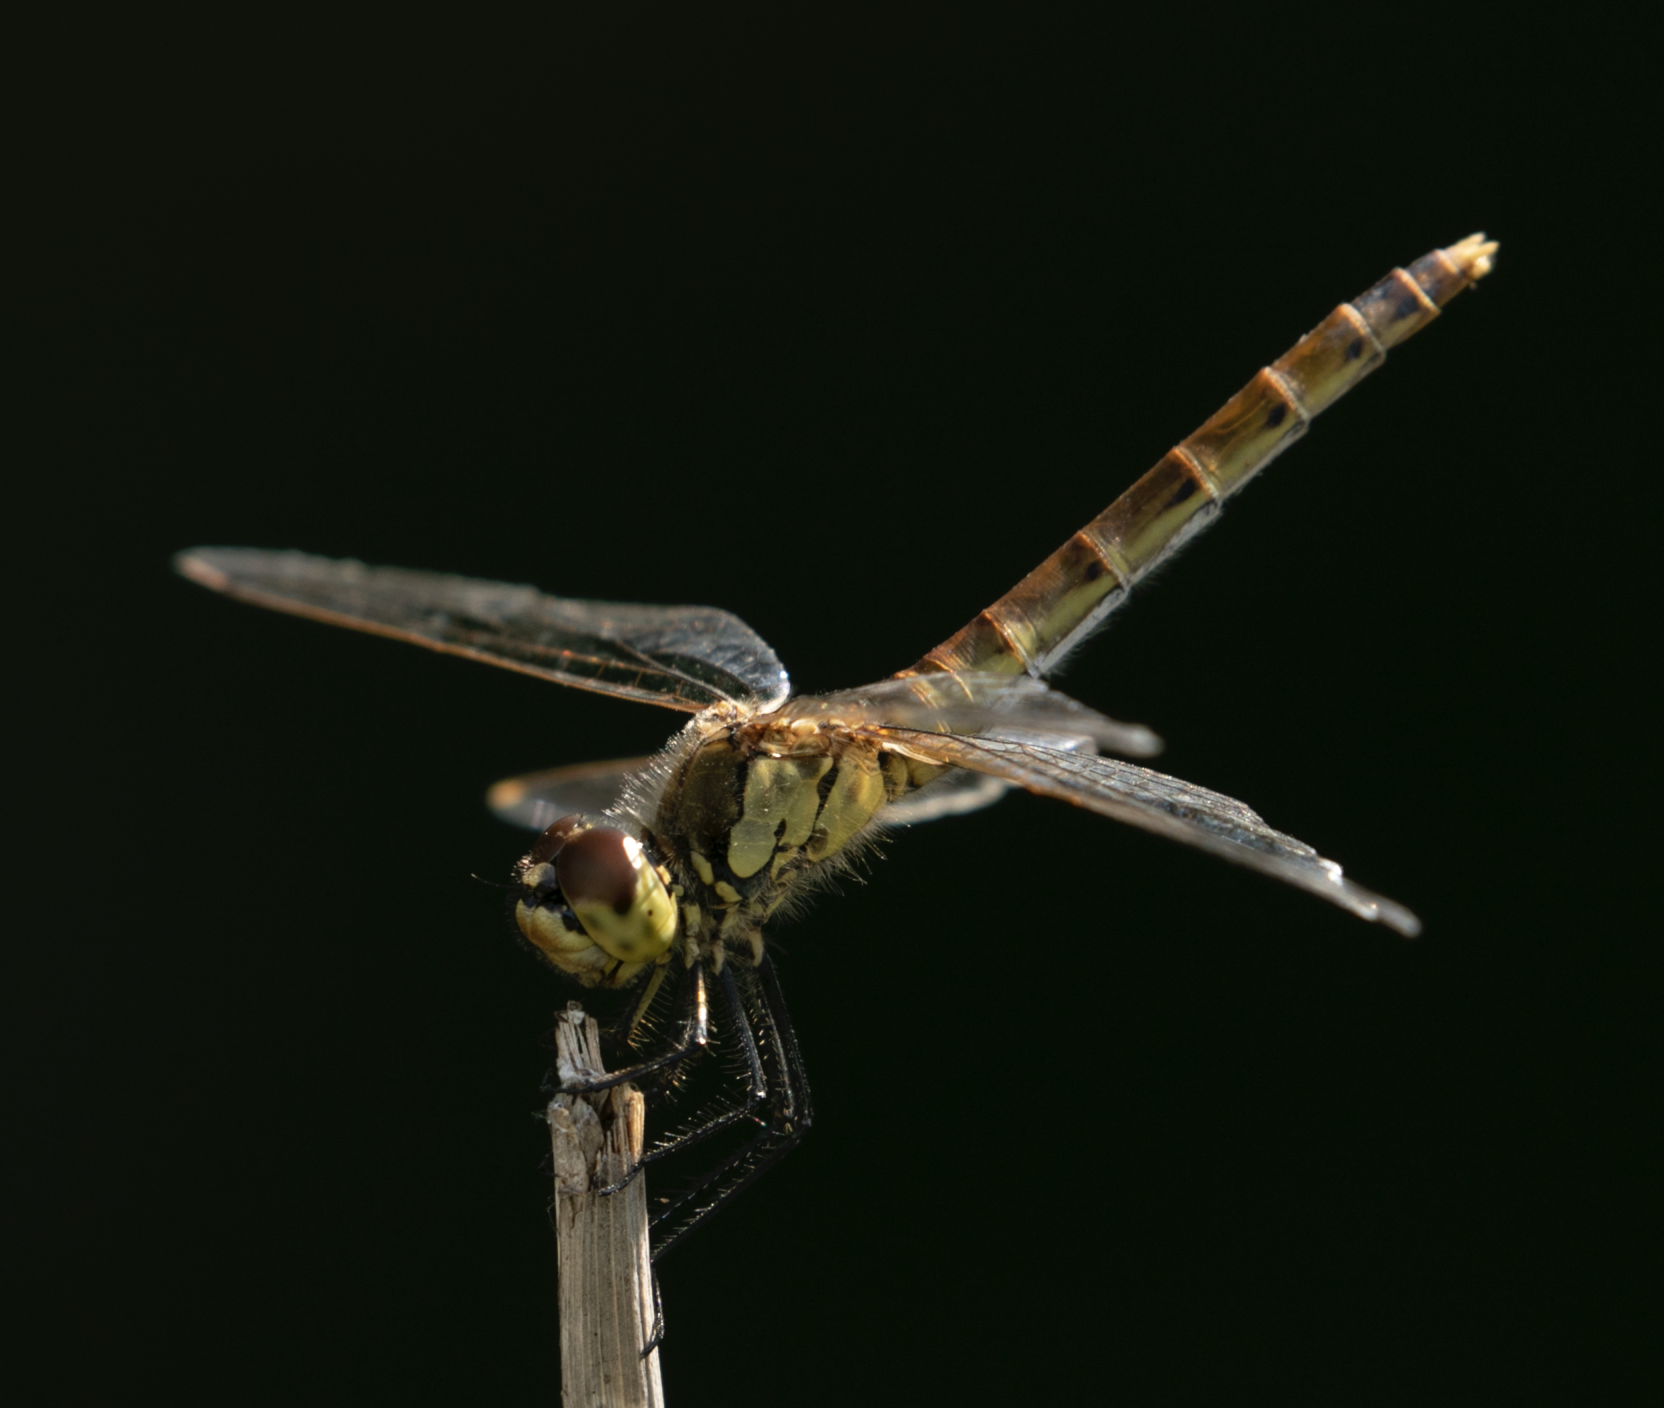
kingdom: Animalia
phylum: Arthropoda
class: Insecta
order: Odonata
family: Libellulidae
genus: Sympetrum
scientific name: Sympetrum depressiusculum
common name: Spotted darter
